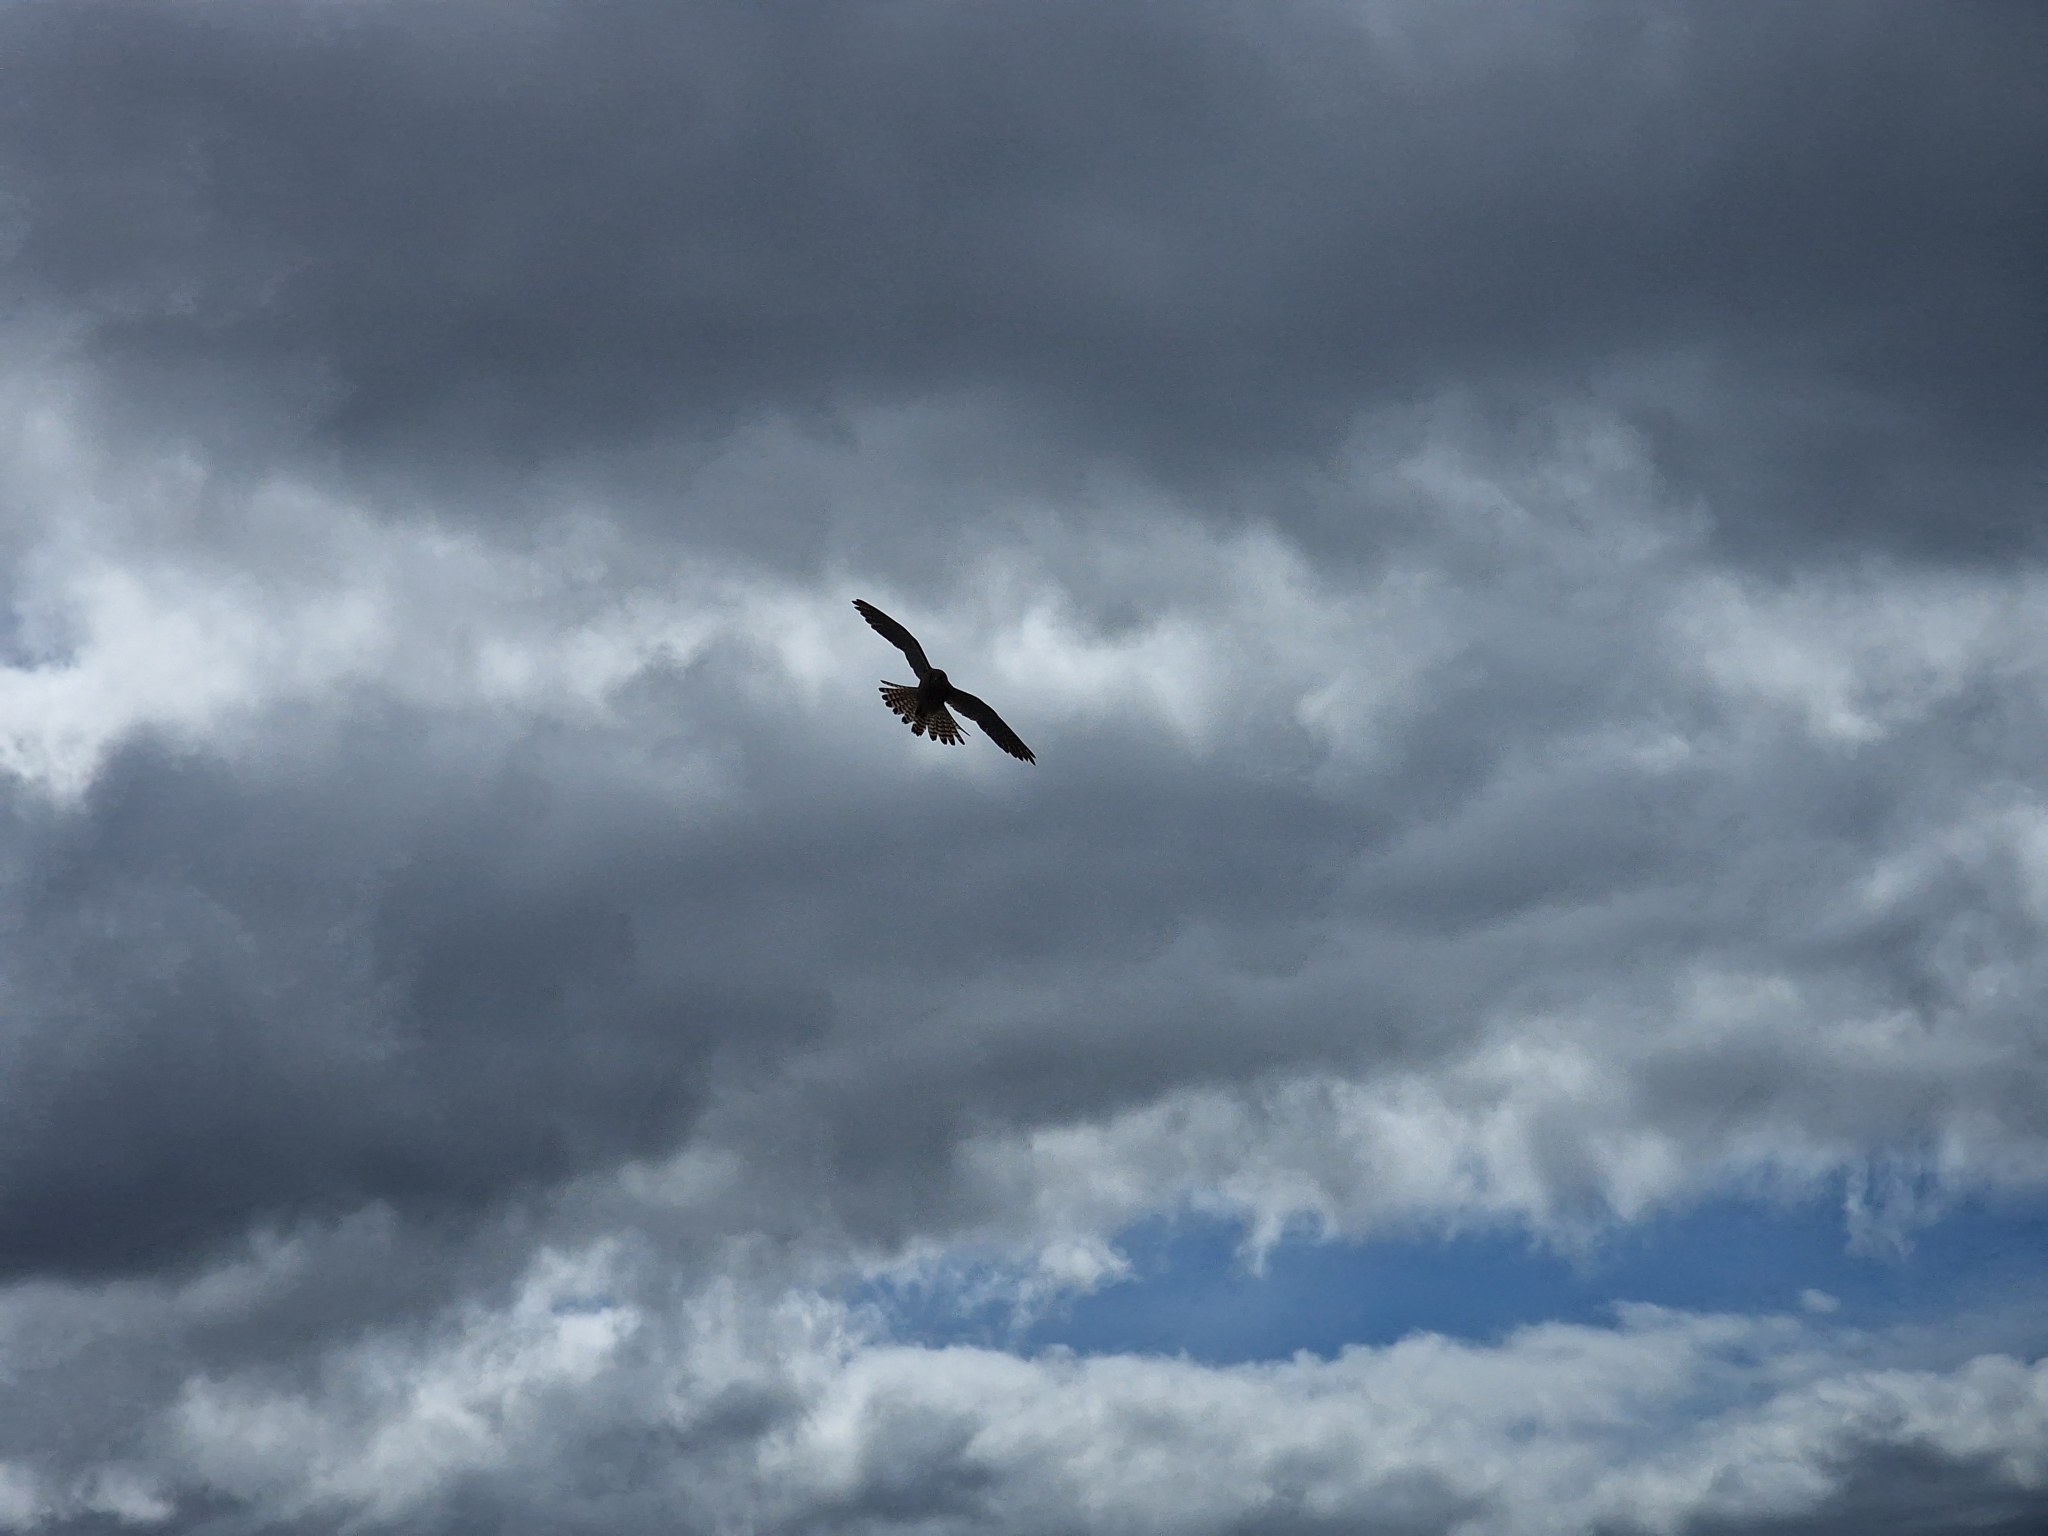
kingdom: Animalia
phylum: Chordata
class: Aves
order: Falconiformes
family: Falconidae
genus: Falco
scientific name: Falco tinnunculus
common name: Common kestrel
